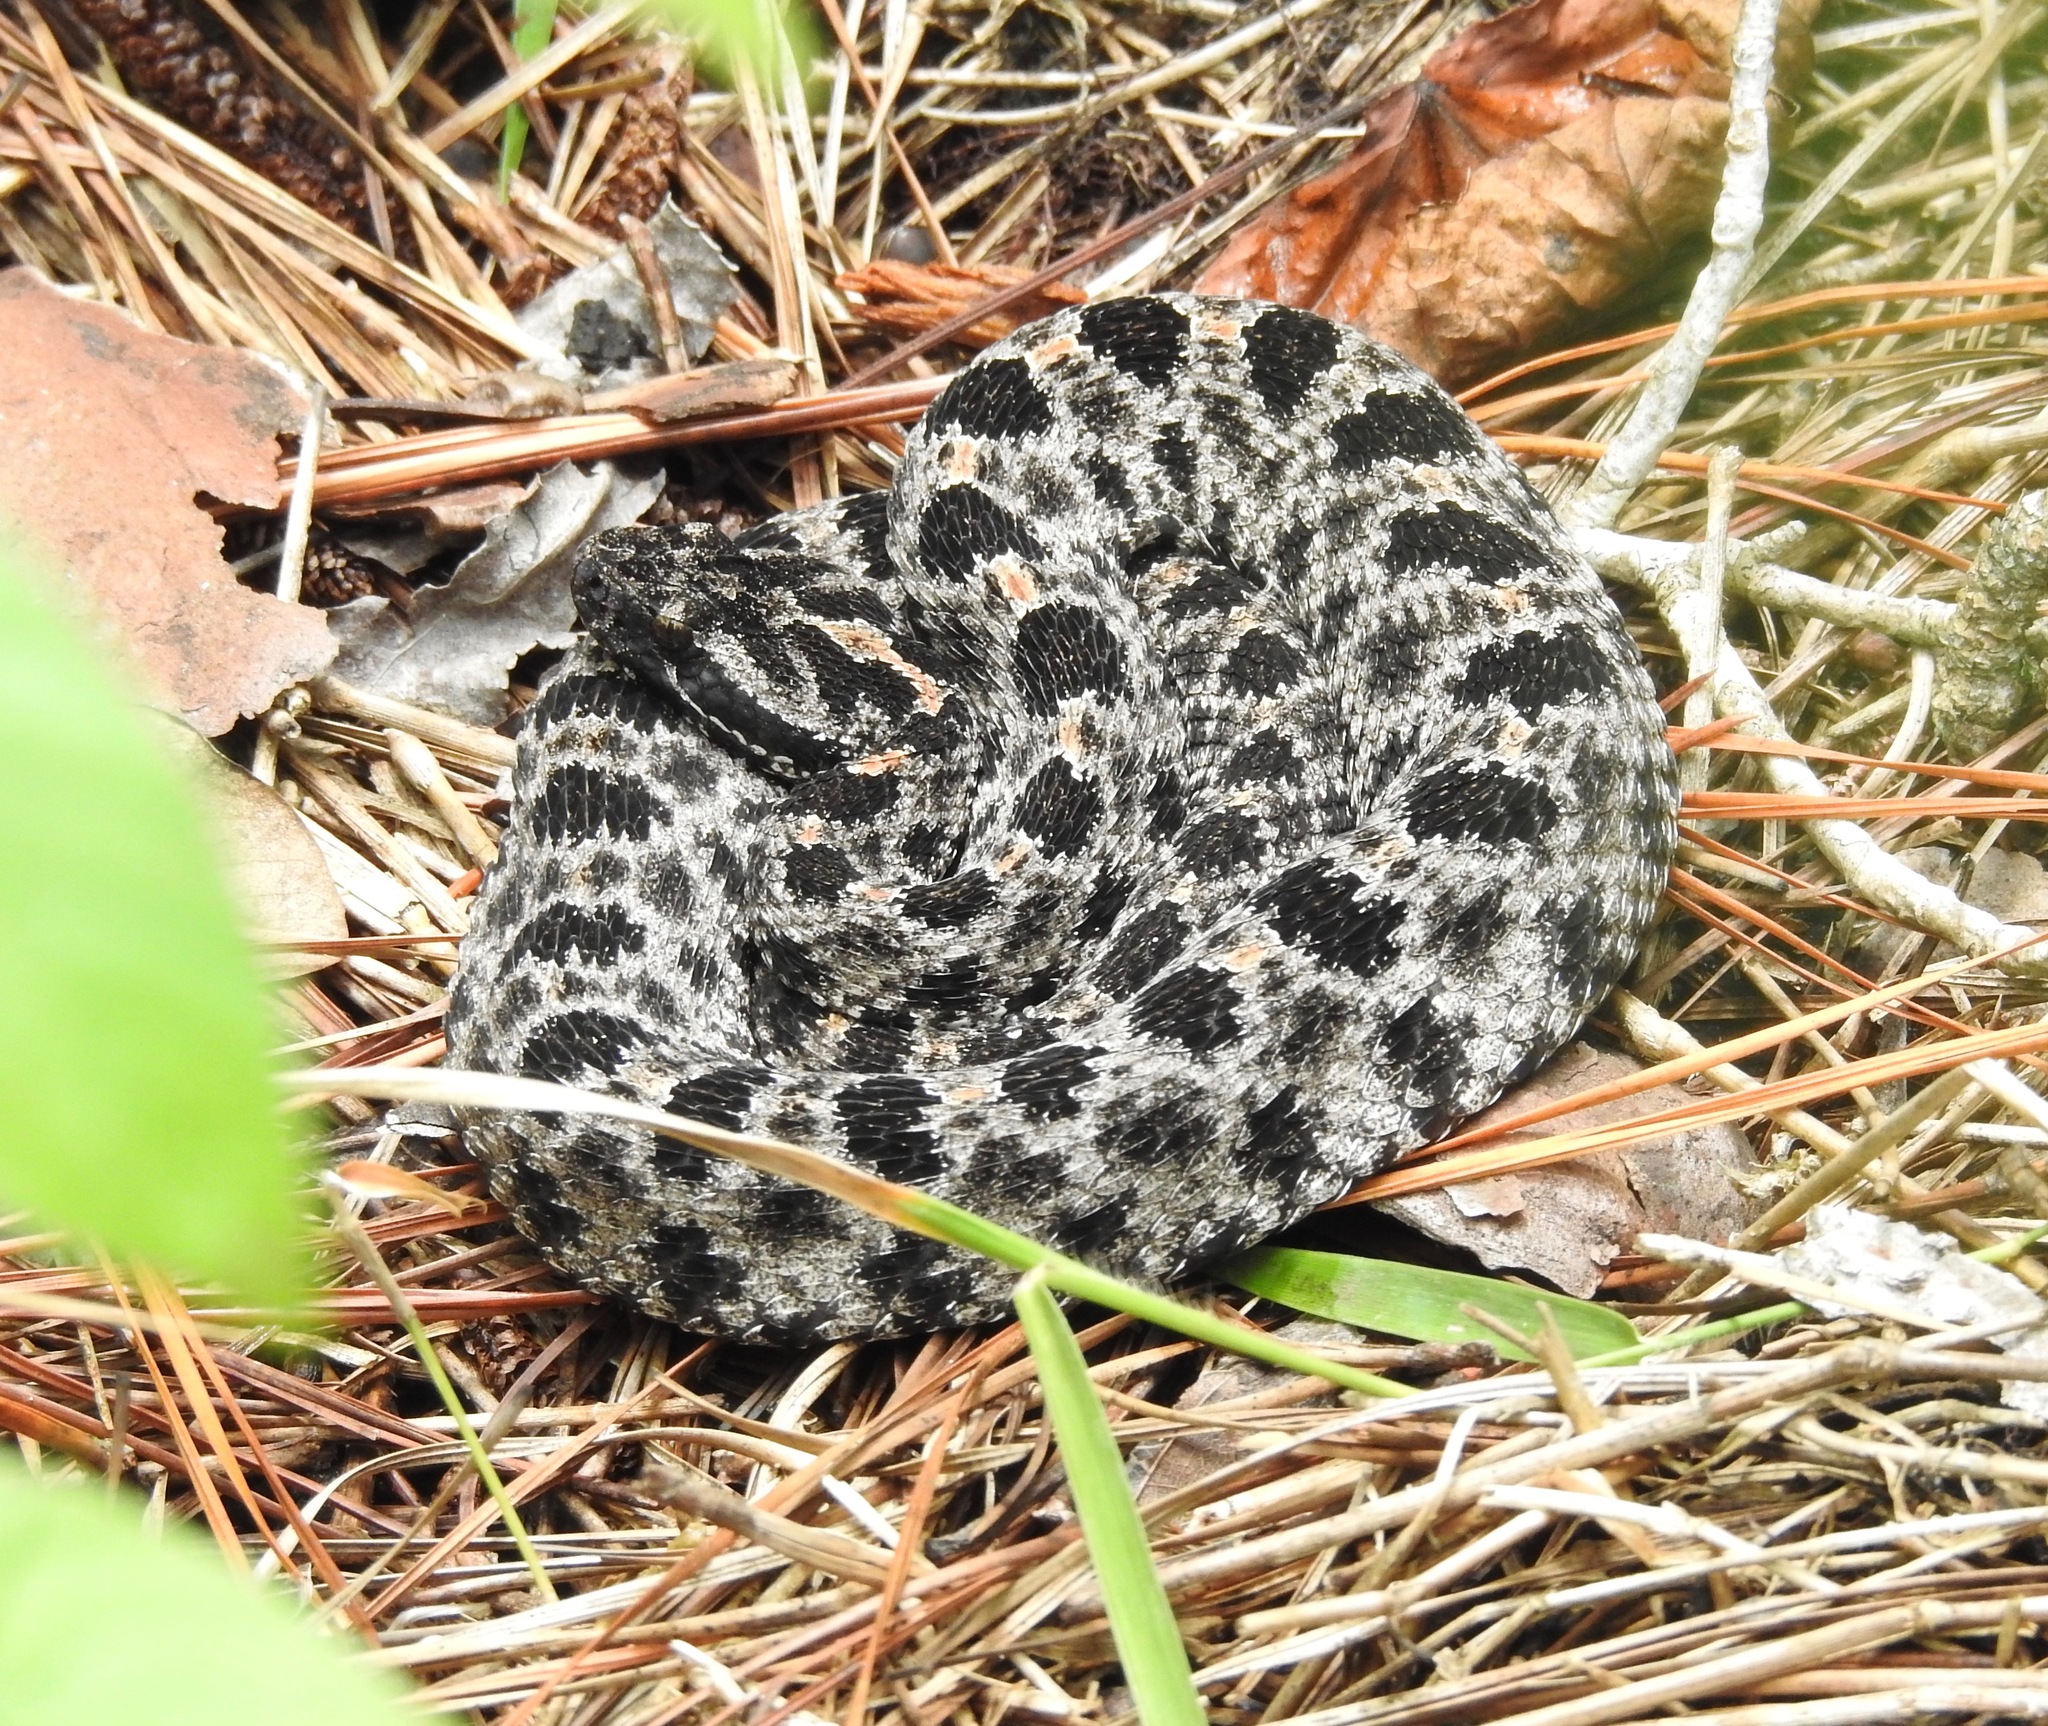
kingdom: Animalia
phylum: Chordata
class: Squamata
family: Viperidae
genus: Sistrurus
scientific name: Sistrurus miliarius
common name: Pygmy rattlesnake
